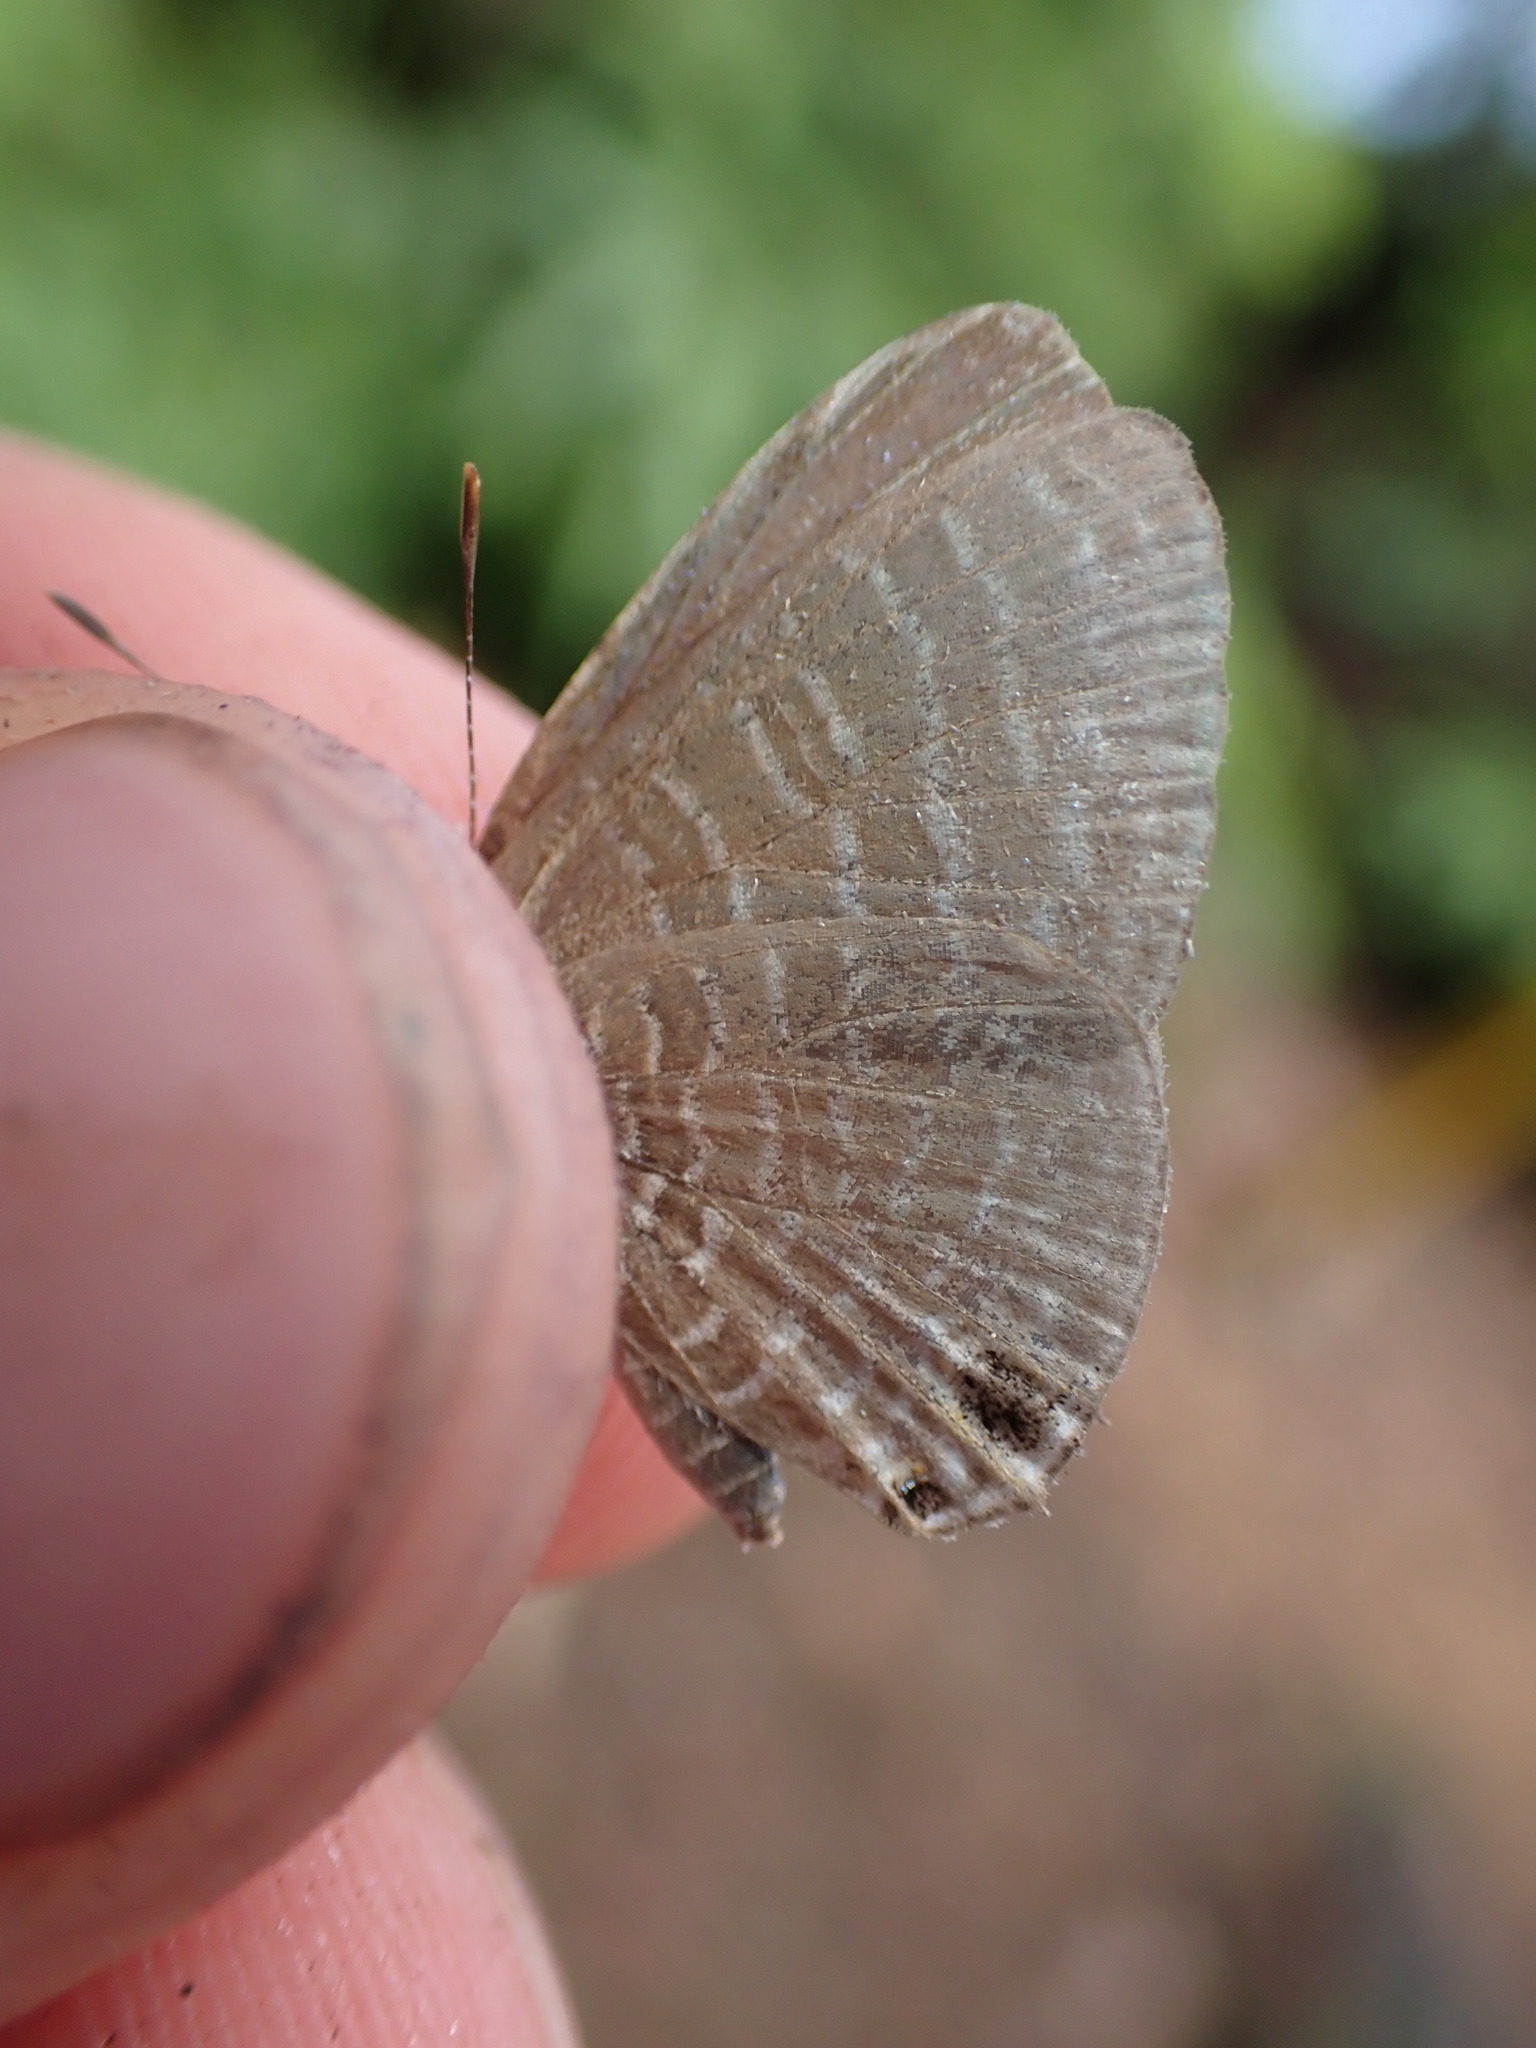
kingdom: Animalia
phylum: Arthropoda
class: Insecta
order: Lepidoptera
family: Lycaenidae
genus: Nacaduba
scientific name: Nacaduba kurava
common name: Transparent 6-line blue
